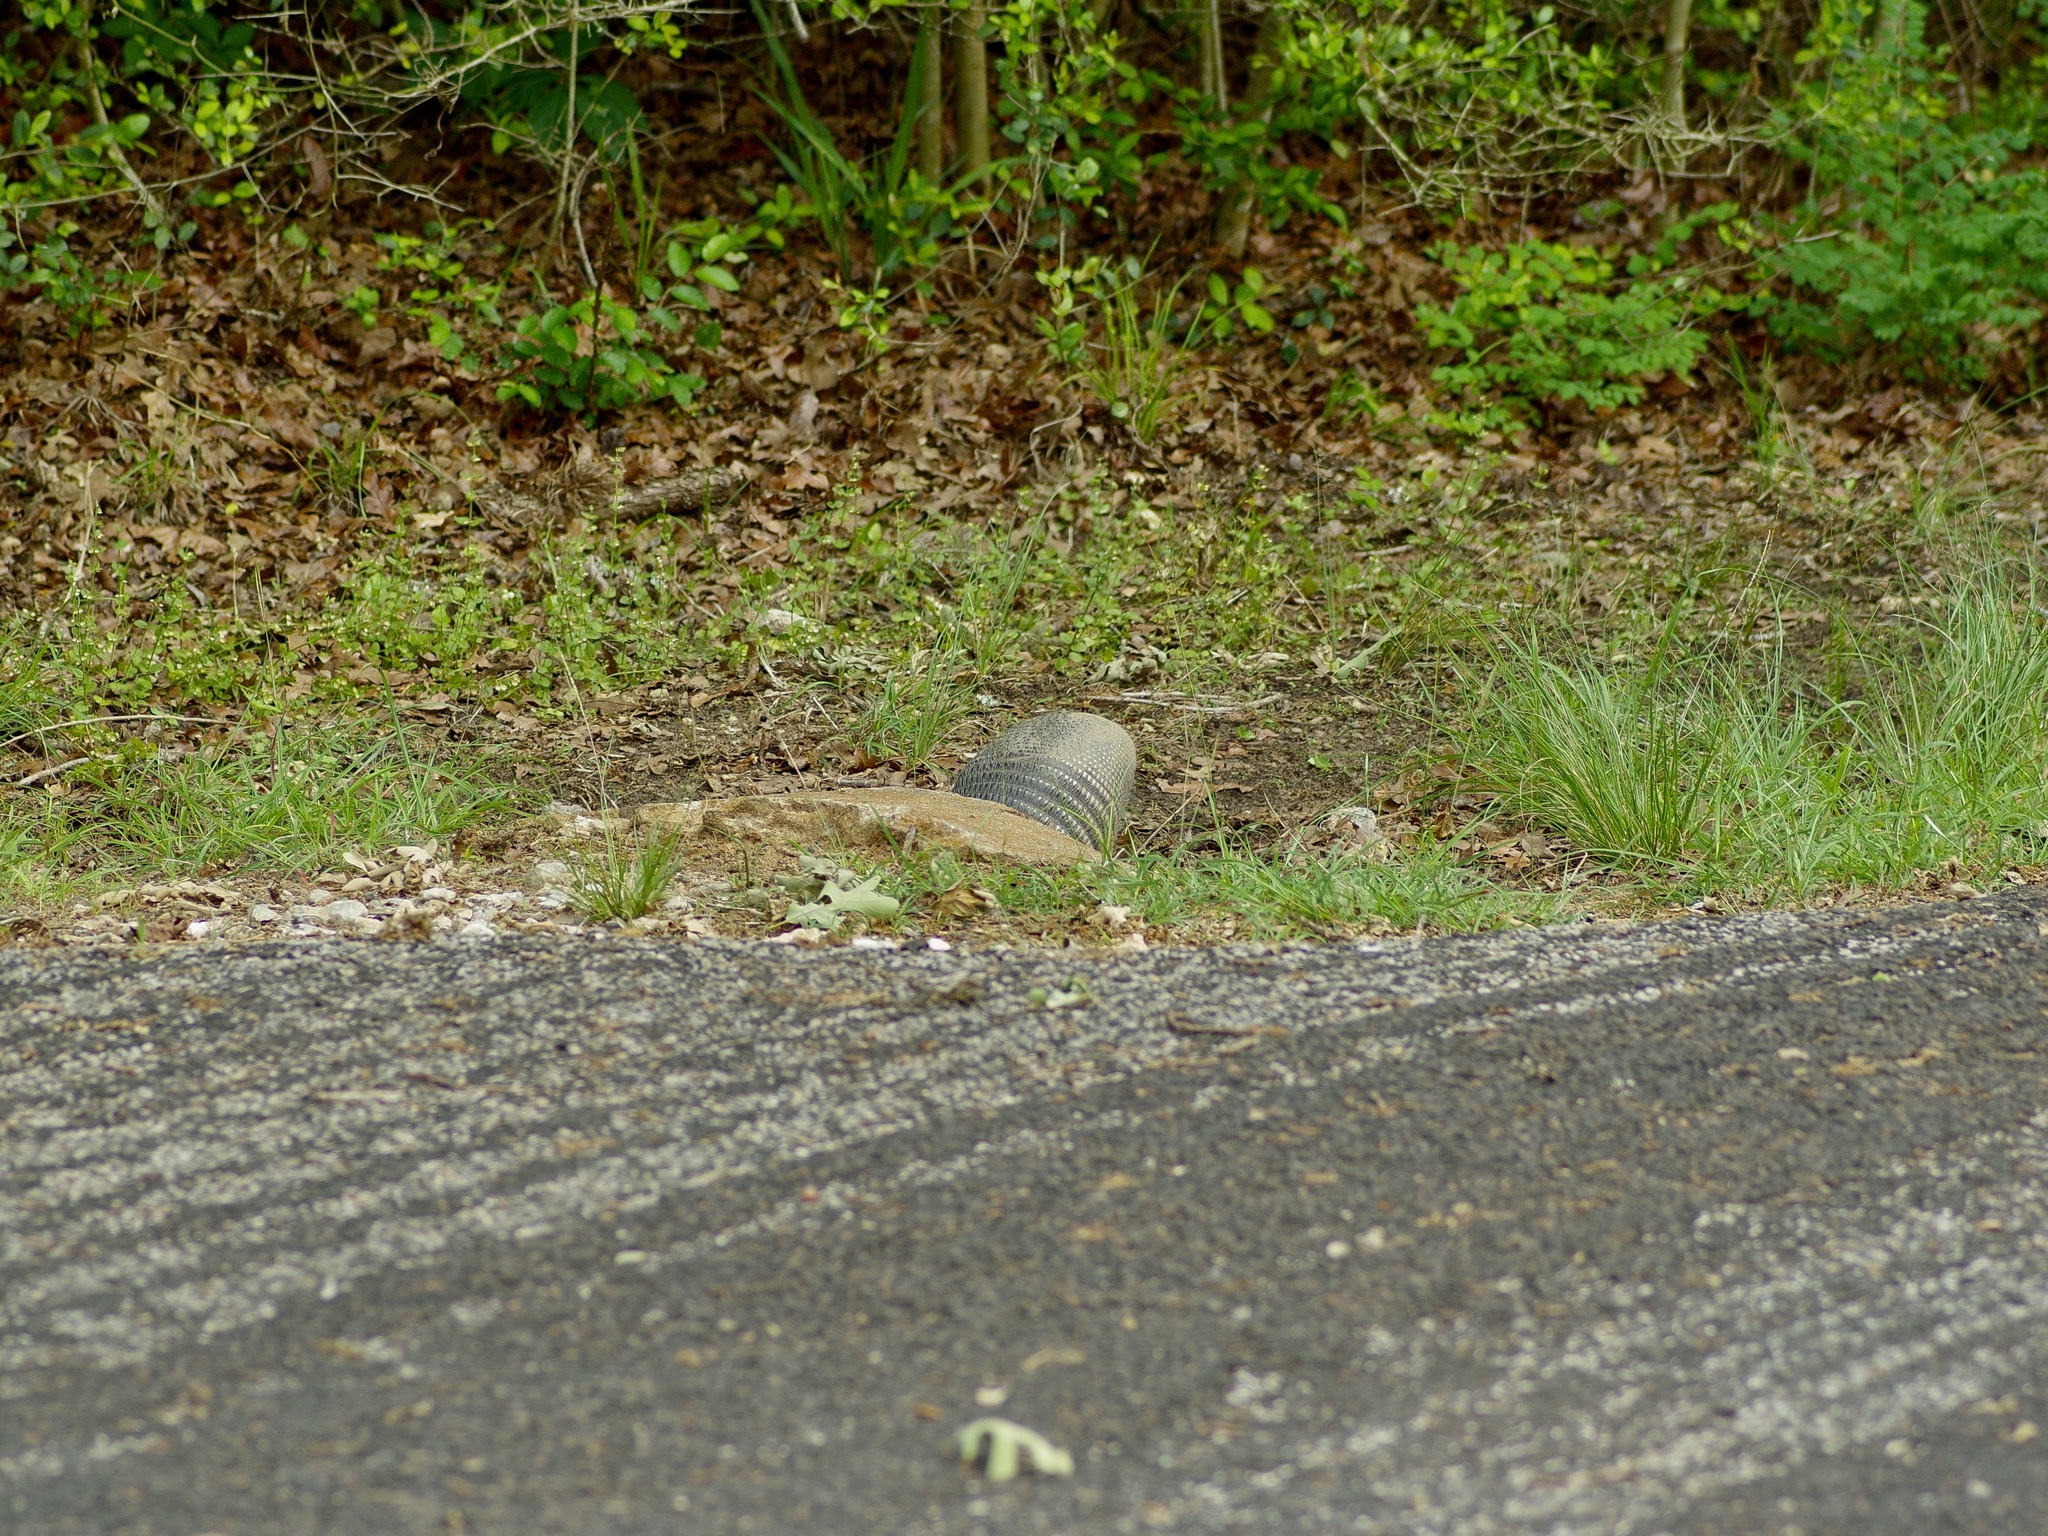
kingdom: Animalia
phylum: Chordata
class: Mammalia
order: Cingulata
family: Dasypodidae
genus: Dasypus
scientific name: Dasypus novemcinctus
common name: Nine-banded armadillo
